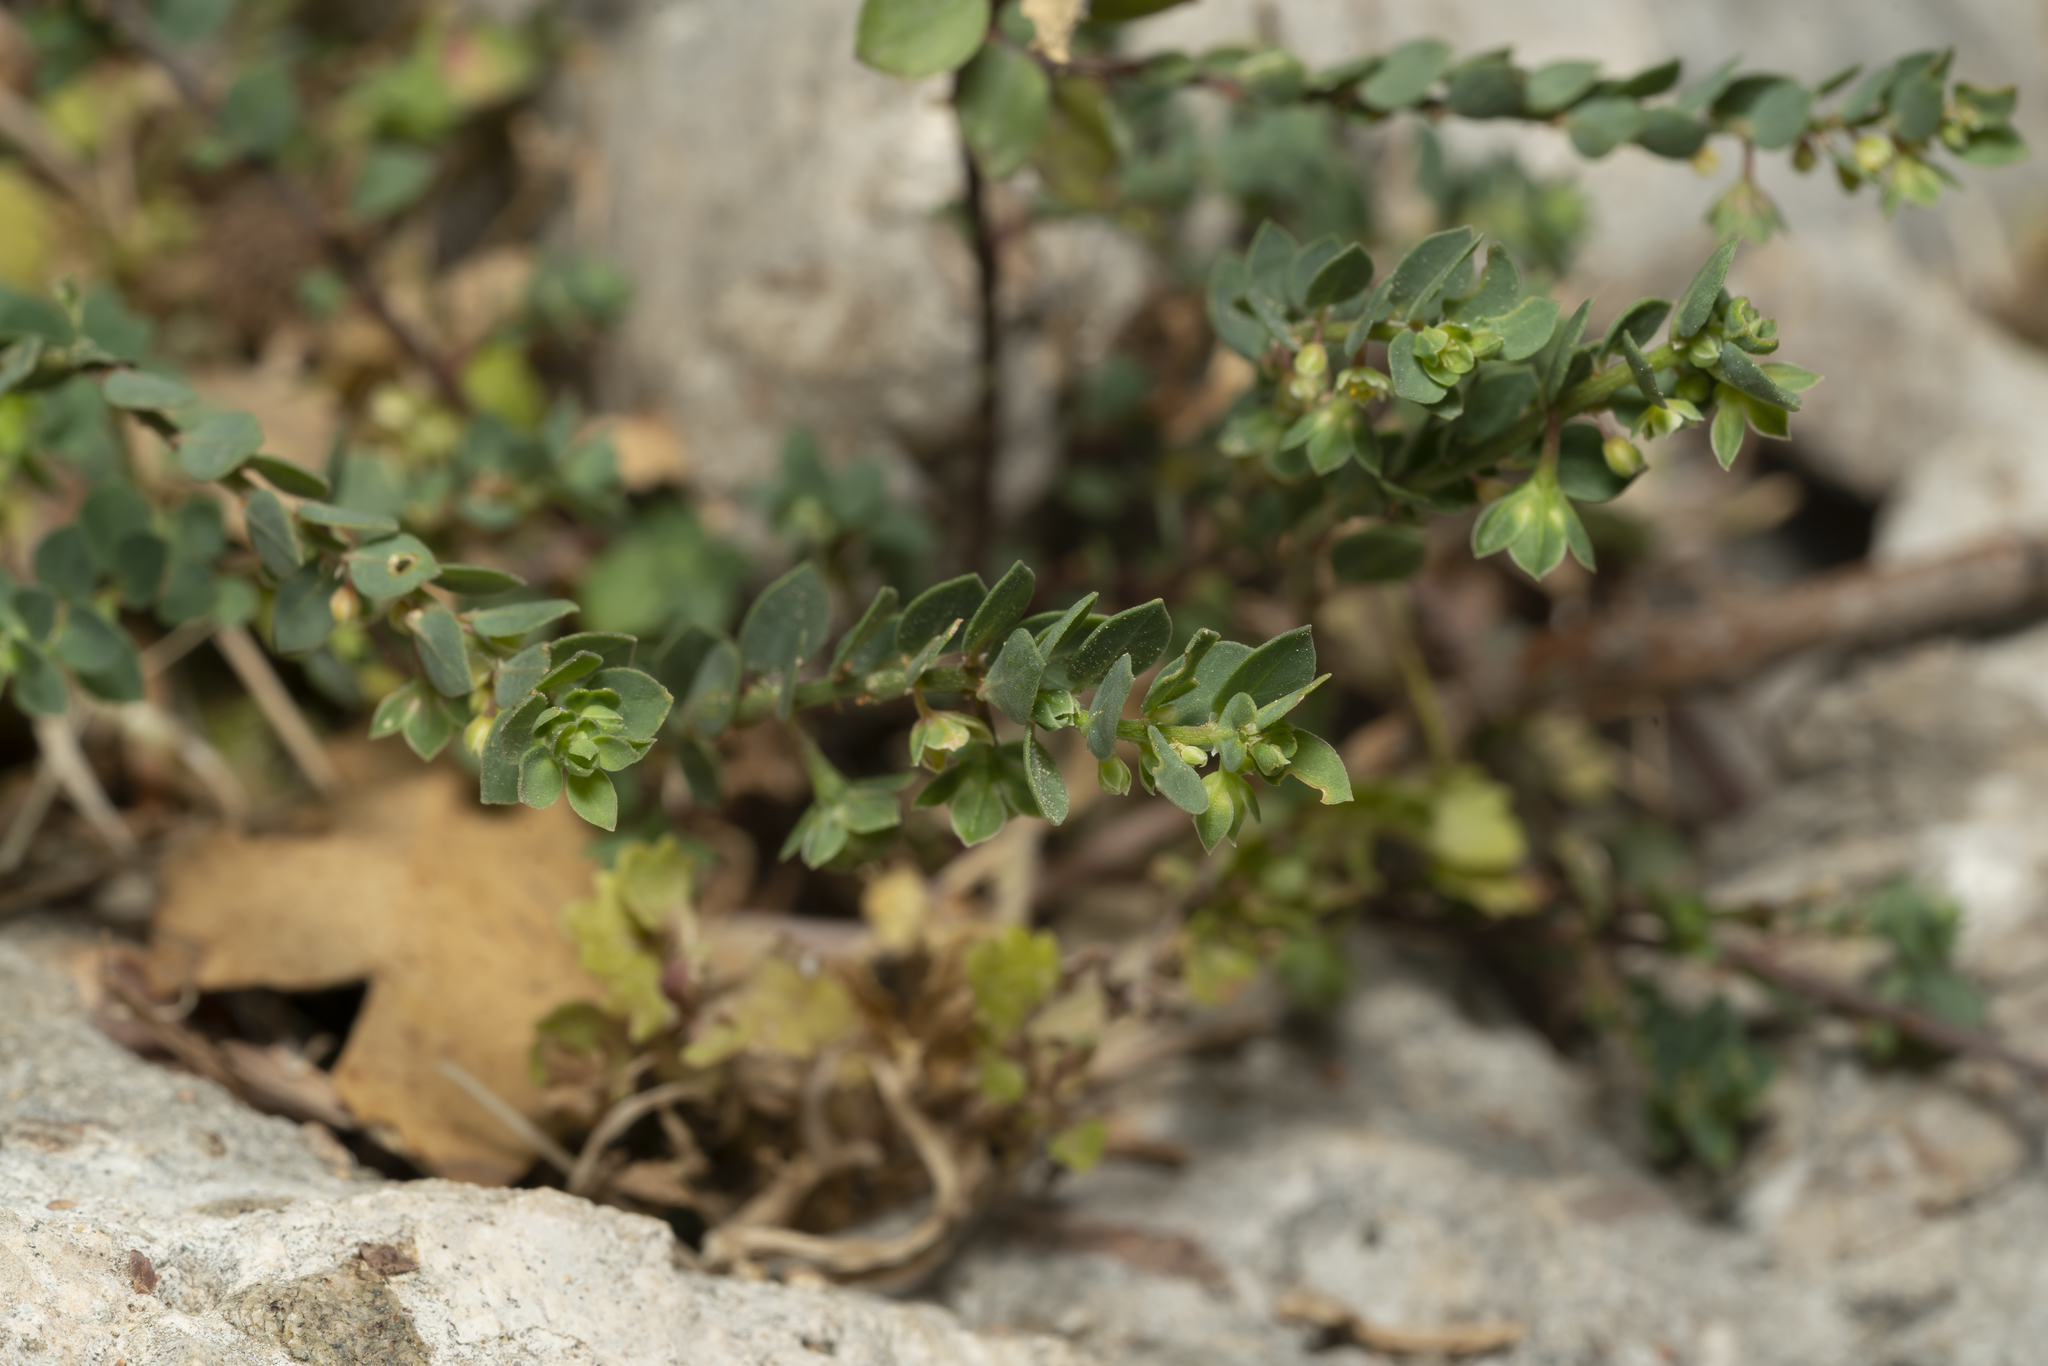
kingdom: Plantae
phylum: Tracheophyta
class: Magnoliopsida
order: Malpighiales
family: Phyllanthaceae
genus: Andrachne
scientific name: Andrachne telephioides
